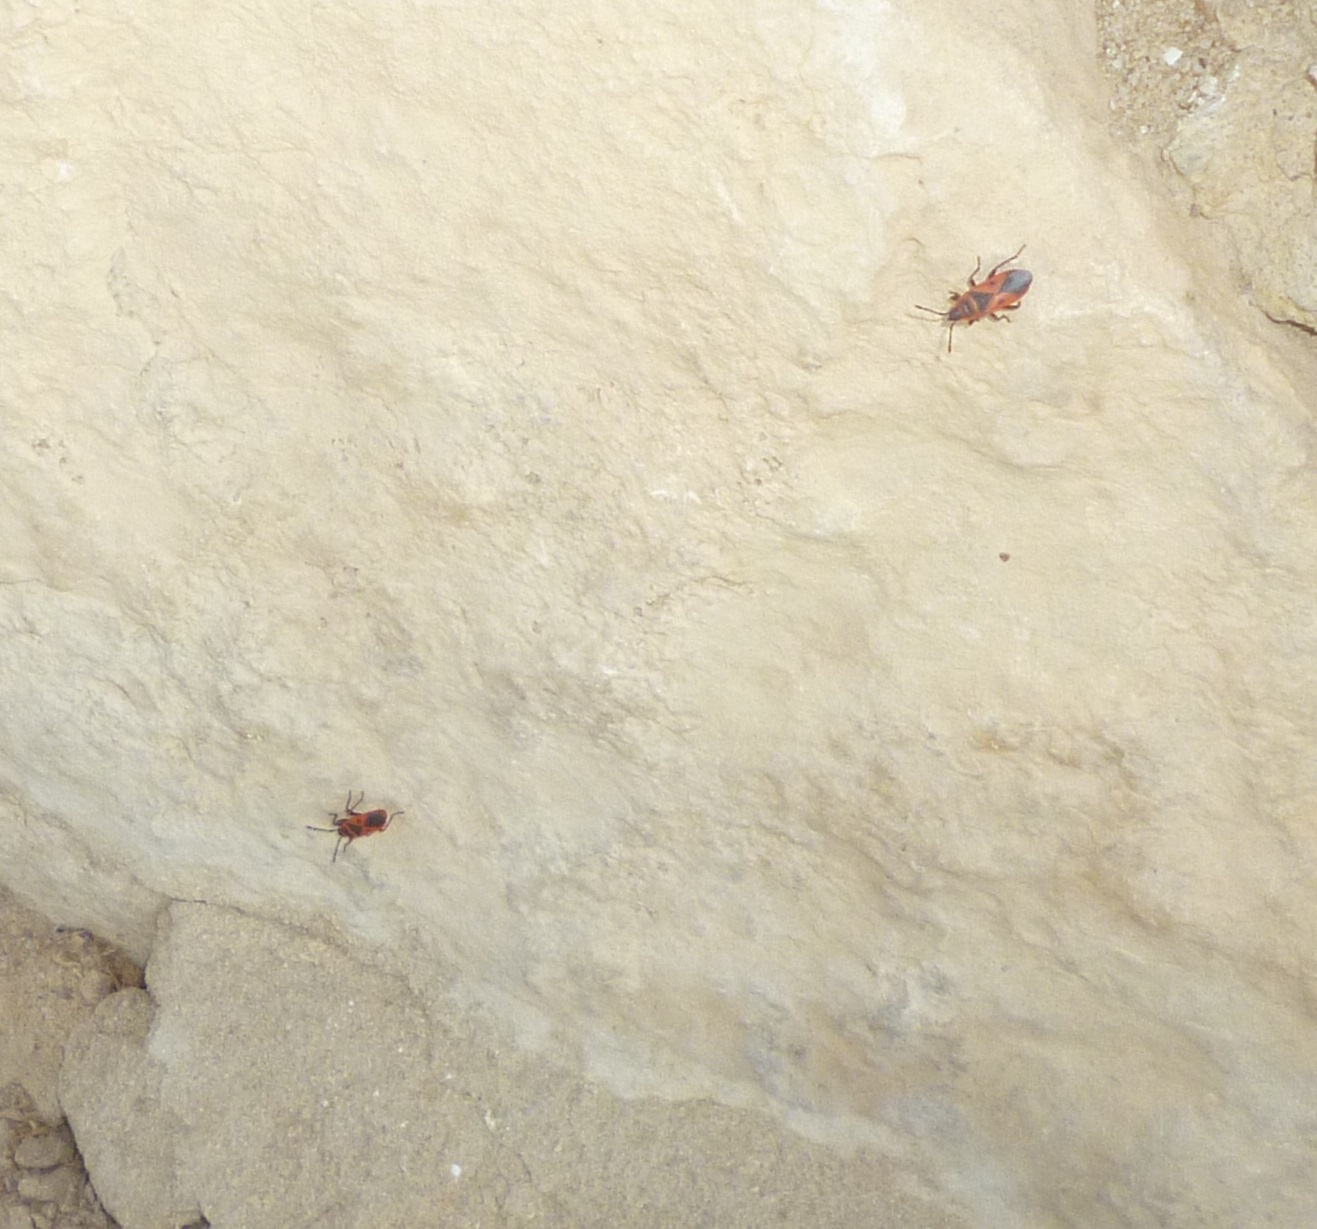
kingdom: Animalia
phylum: Arthropoda
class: Insecta
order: Hemiptera
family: Pyrrhocoridae
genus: Scantius
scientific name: Scantius aegyptius
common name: Red bug
